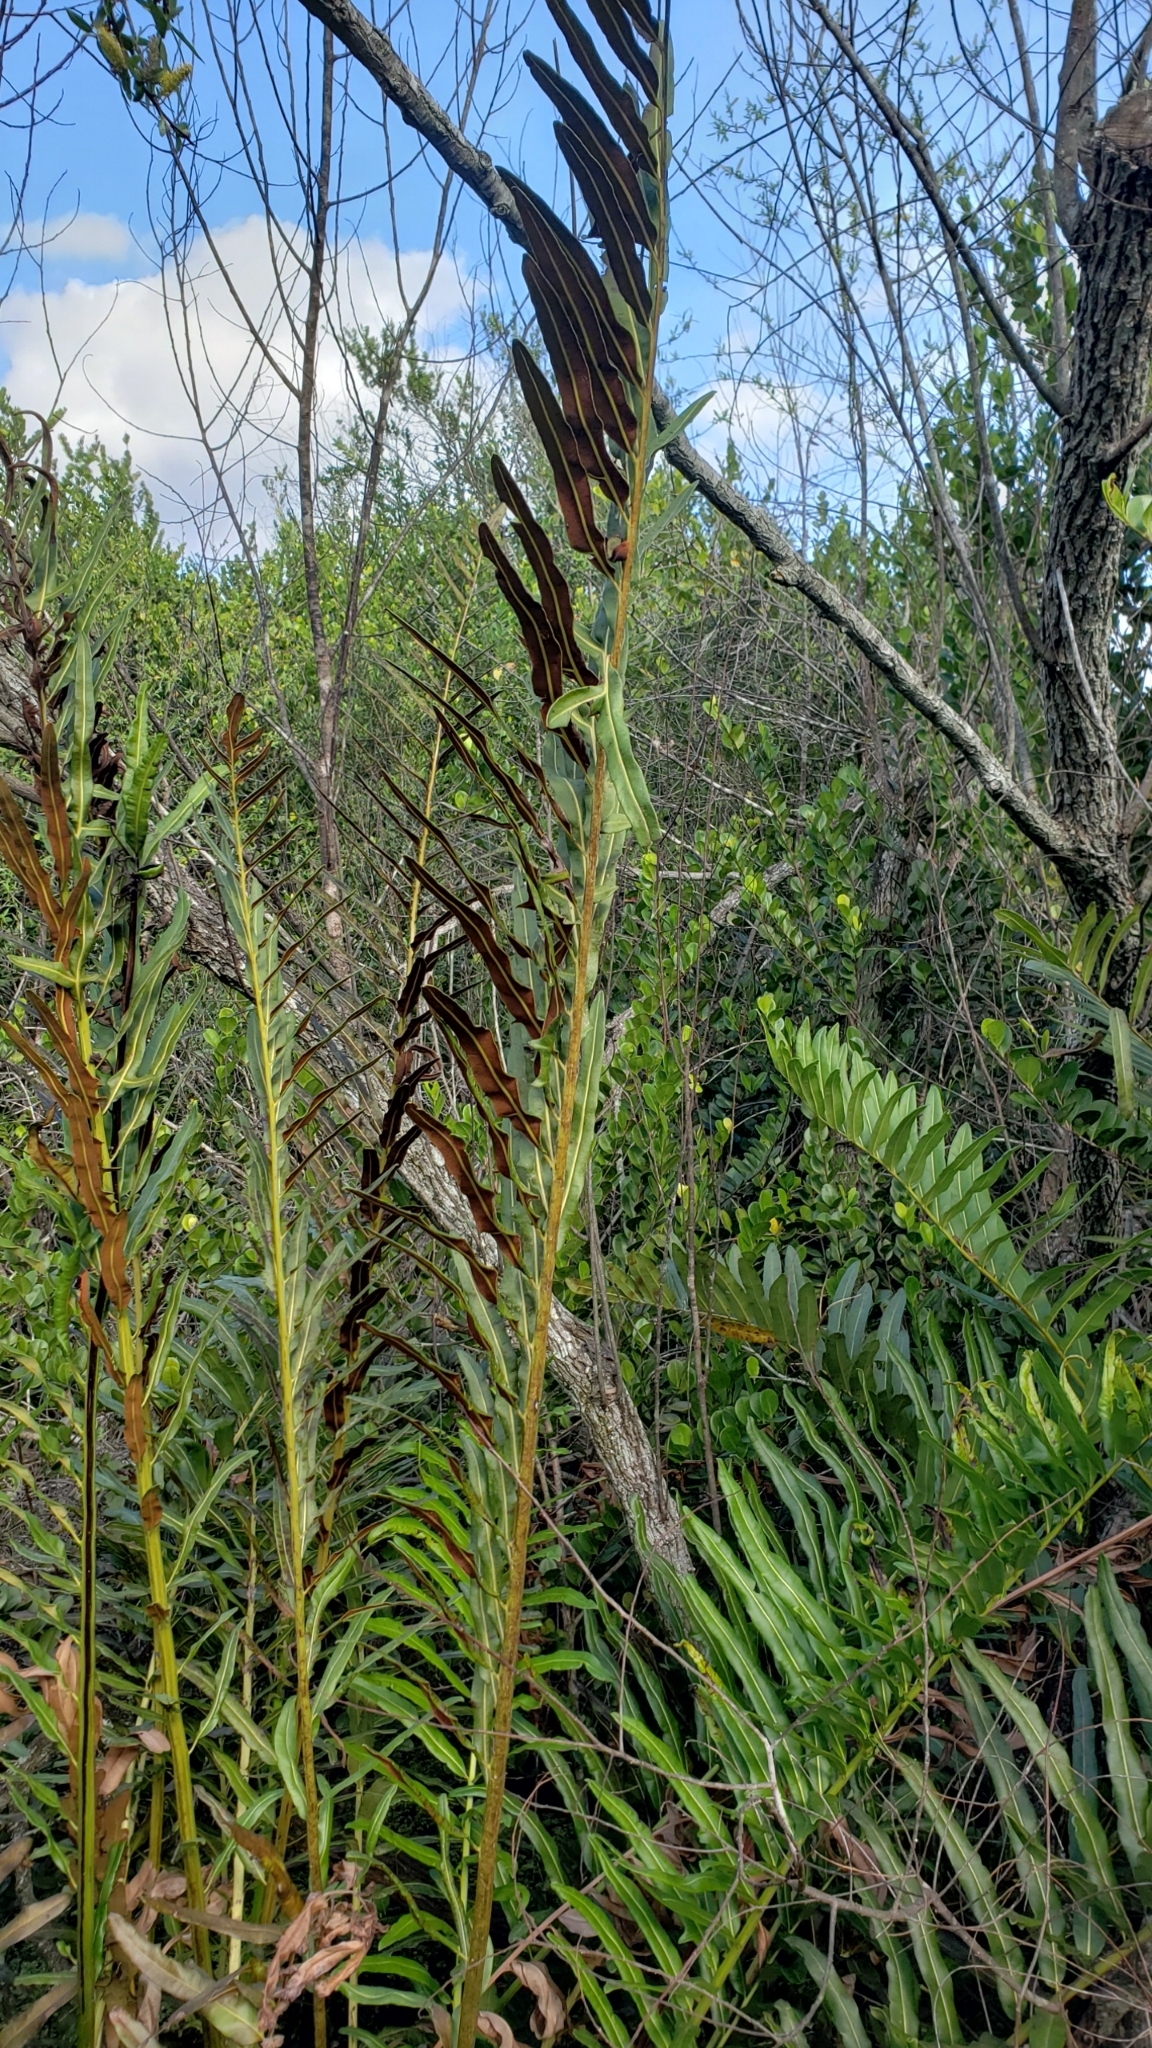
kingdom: Plantae
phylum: Tracheophyta
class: Polypodiopsida
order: Polypodiales
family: Pteridaceae
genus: Acrostichum
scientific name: Acrostichum danaeifolium
